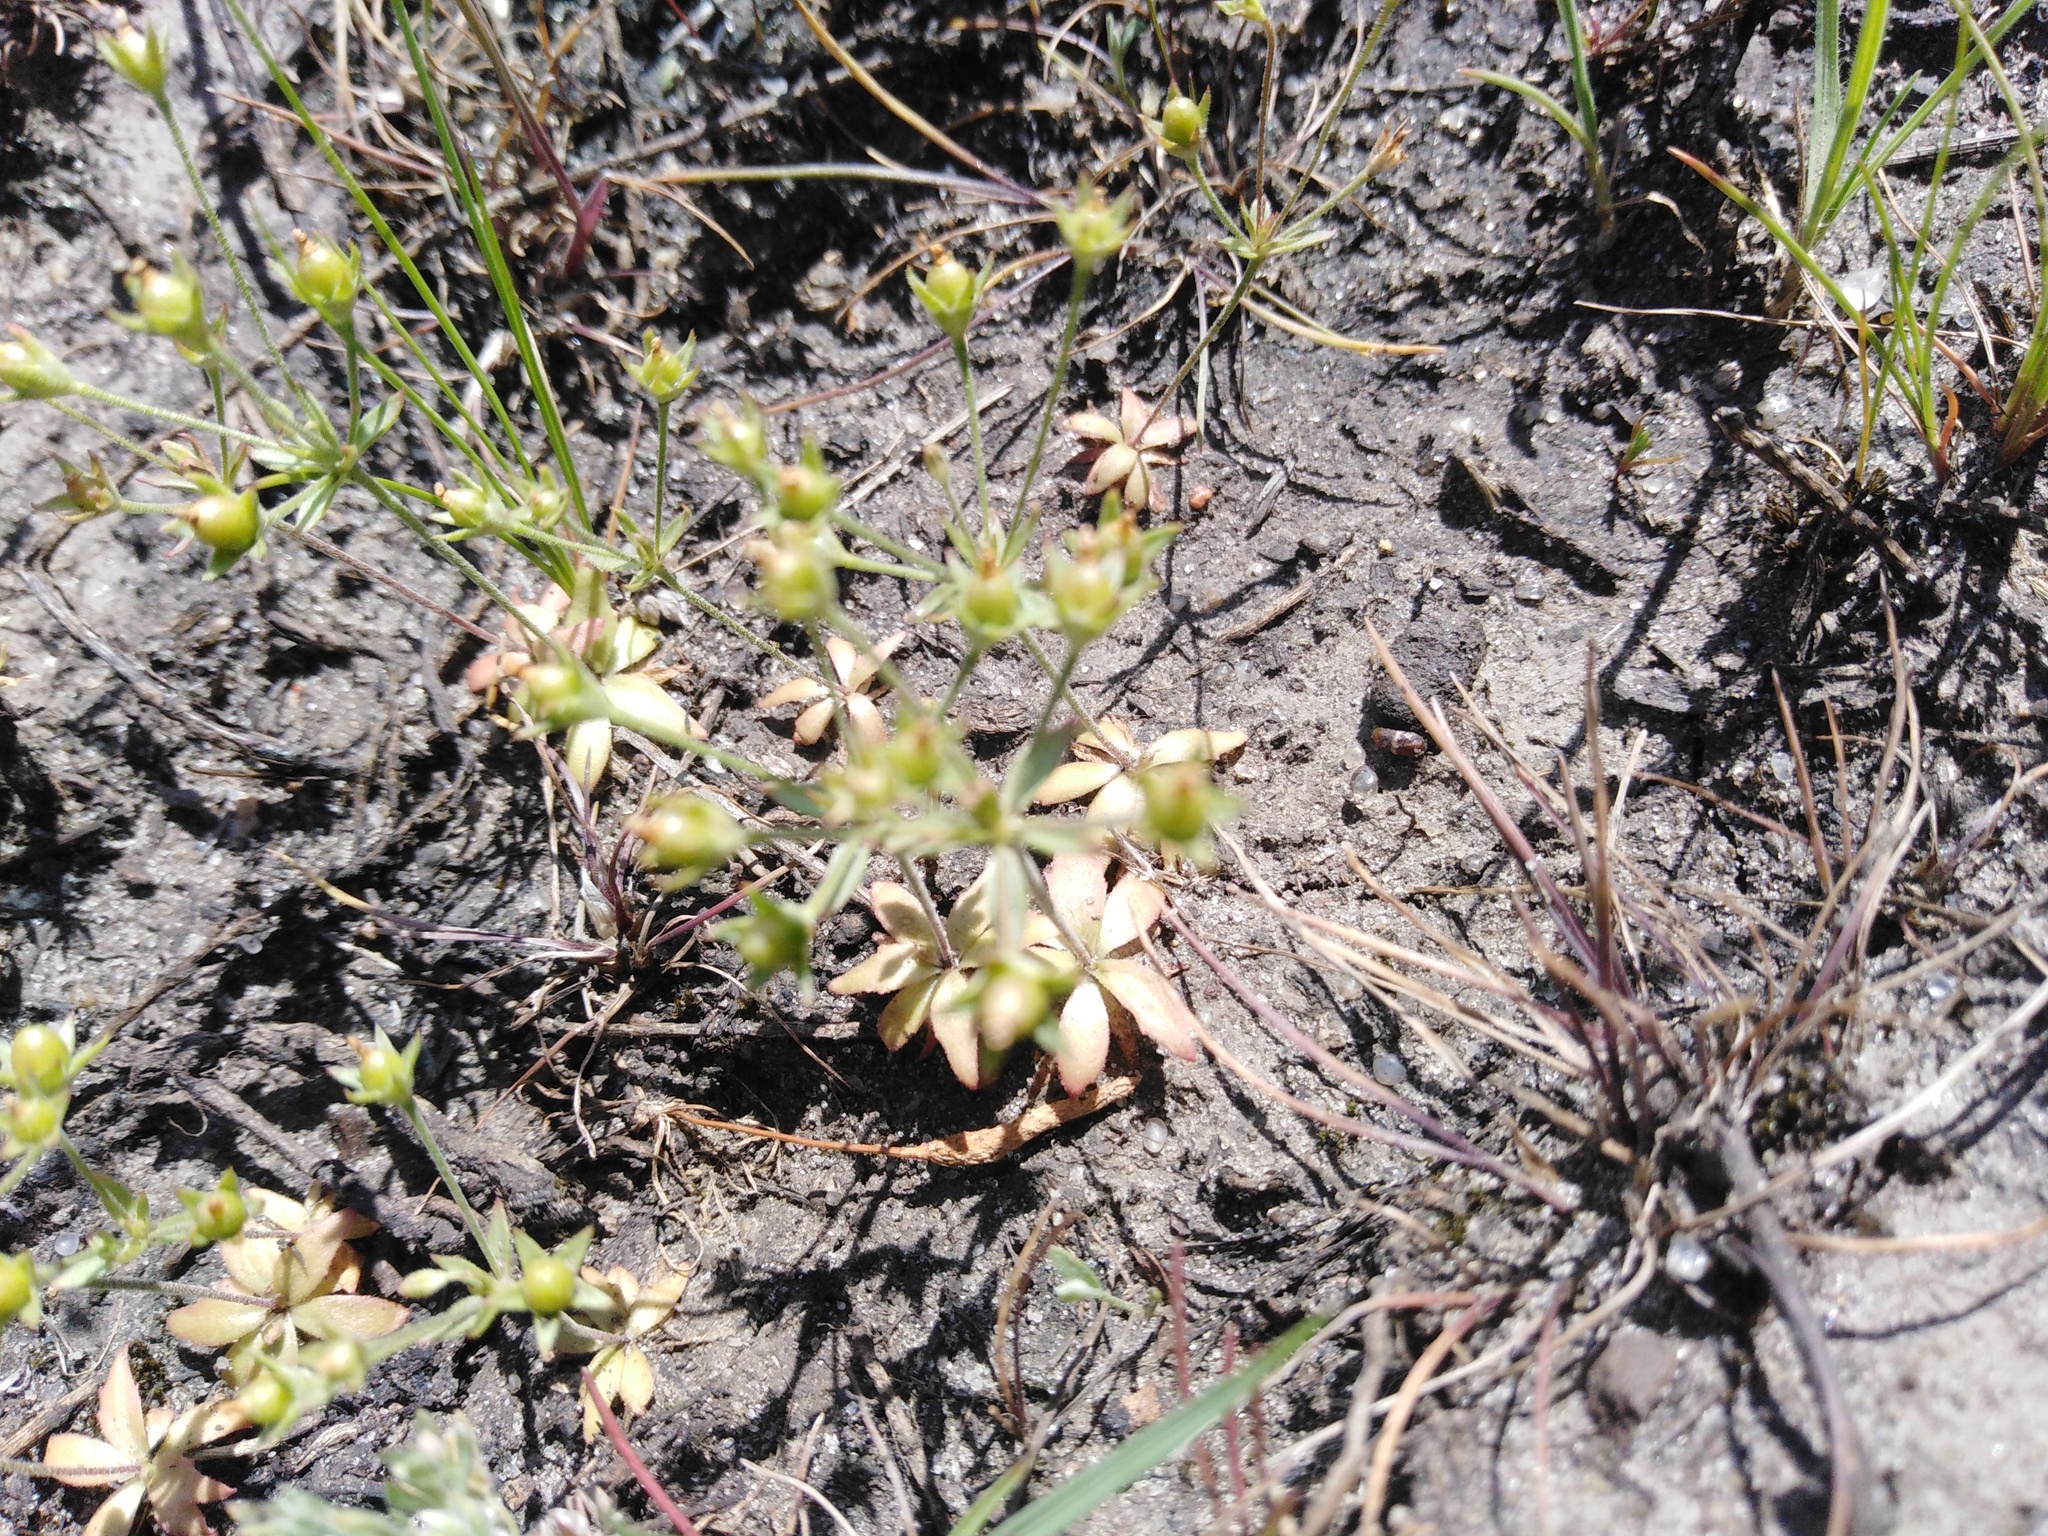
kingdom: Plantae
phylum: Tracheophyta
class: Magnoliopsida
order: Ericales
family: Primulaceae
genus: Androsace
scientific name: Androsace elongata
